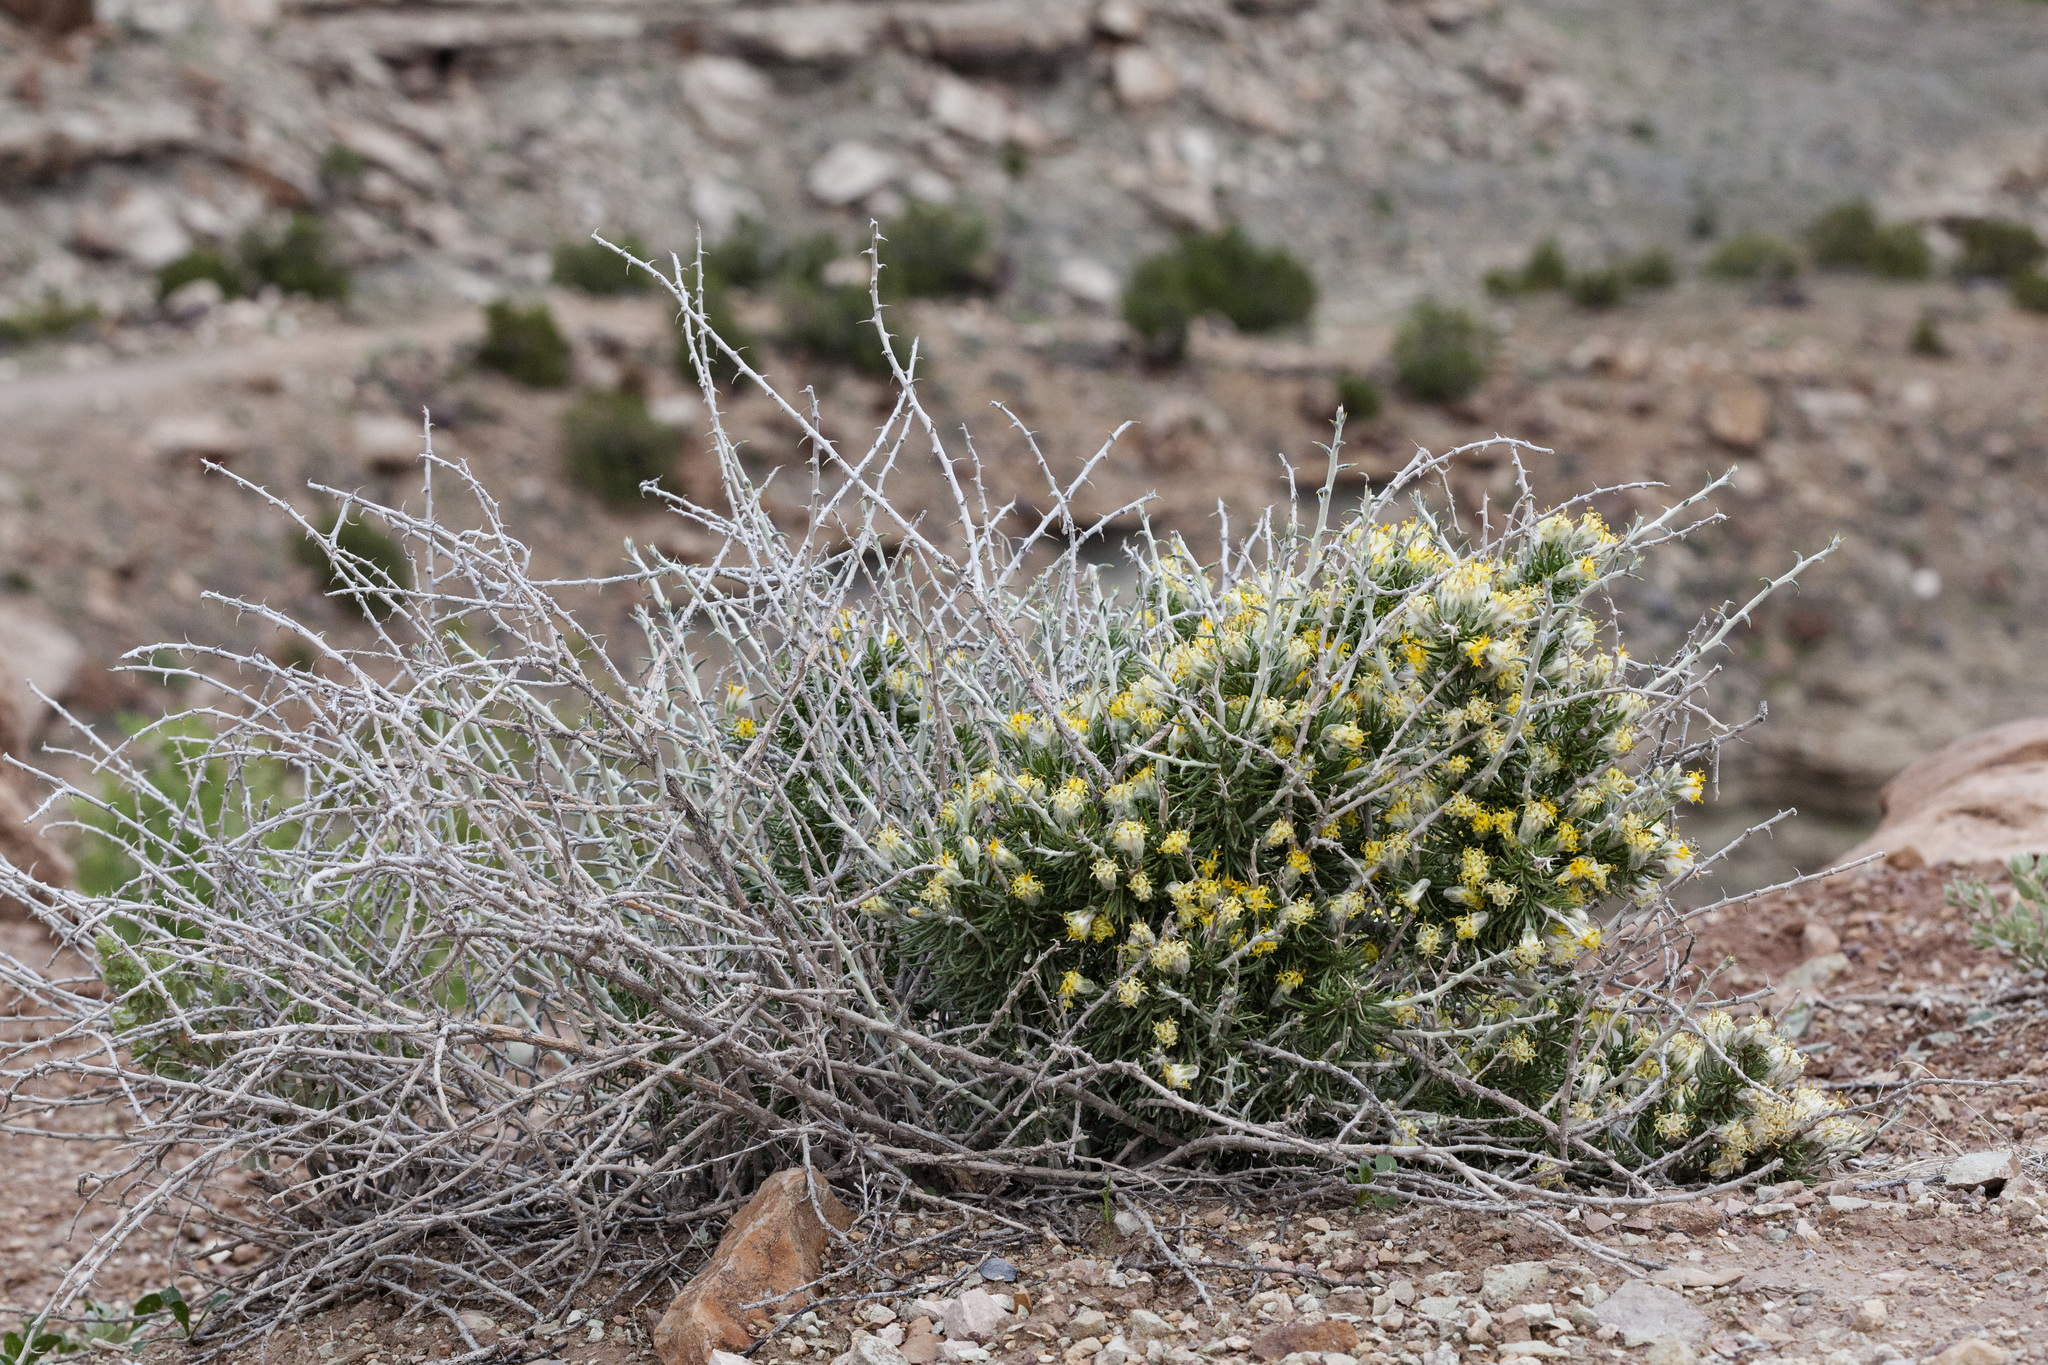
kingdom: Plantae
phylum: Tracheophyta
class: Magnoliopsida
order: Asterales
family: Asteraceae
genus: Tetradymia
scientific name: Tetradymia spinosa
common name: Thorny horsebrush
